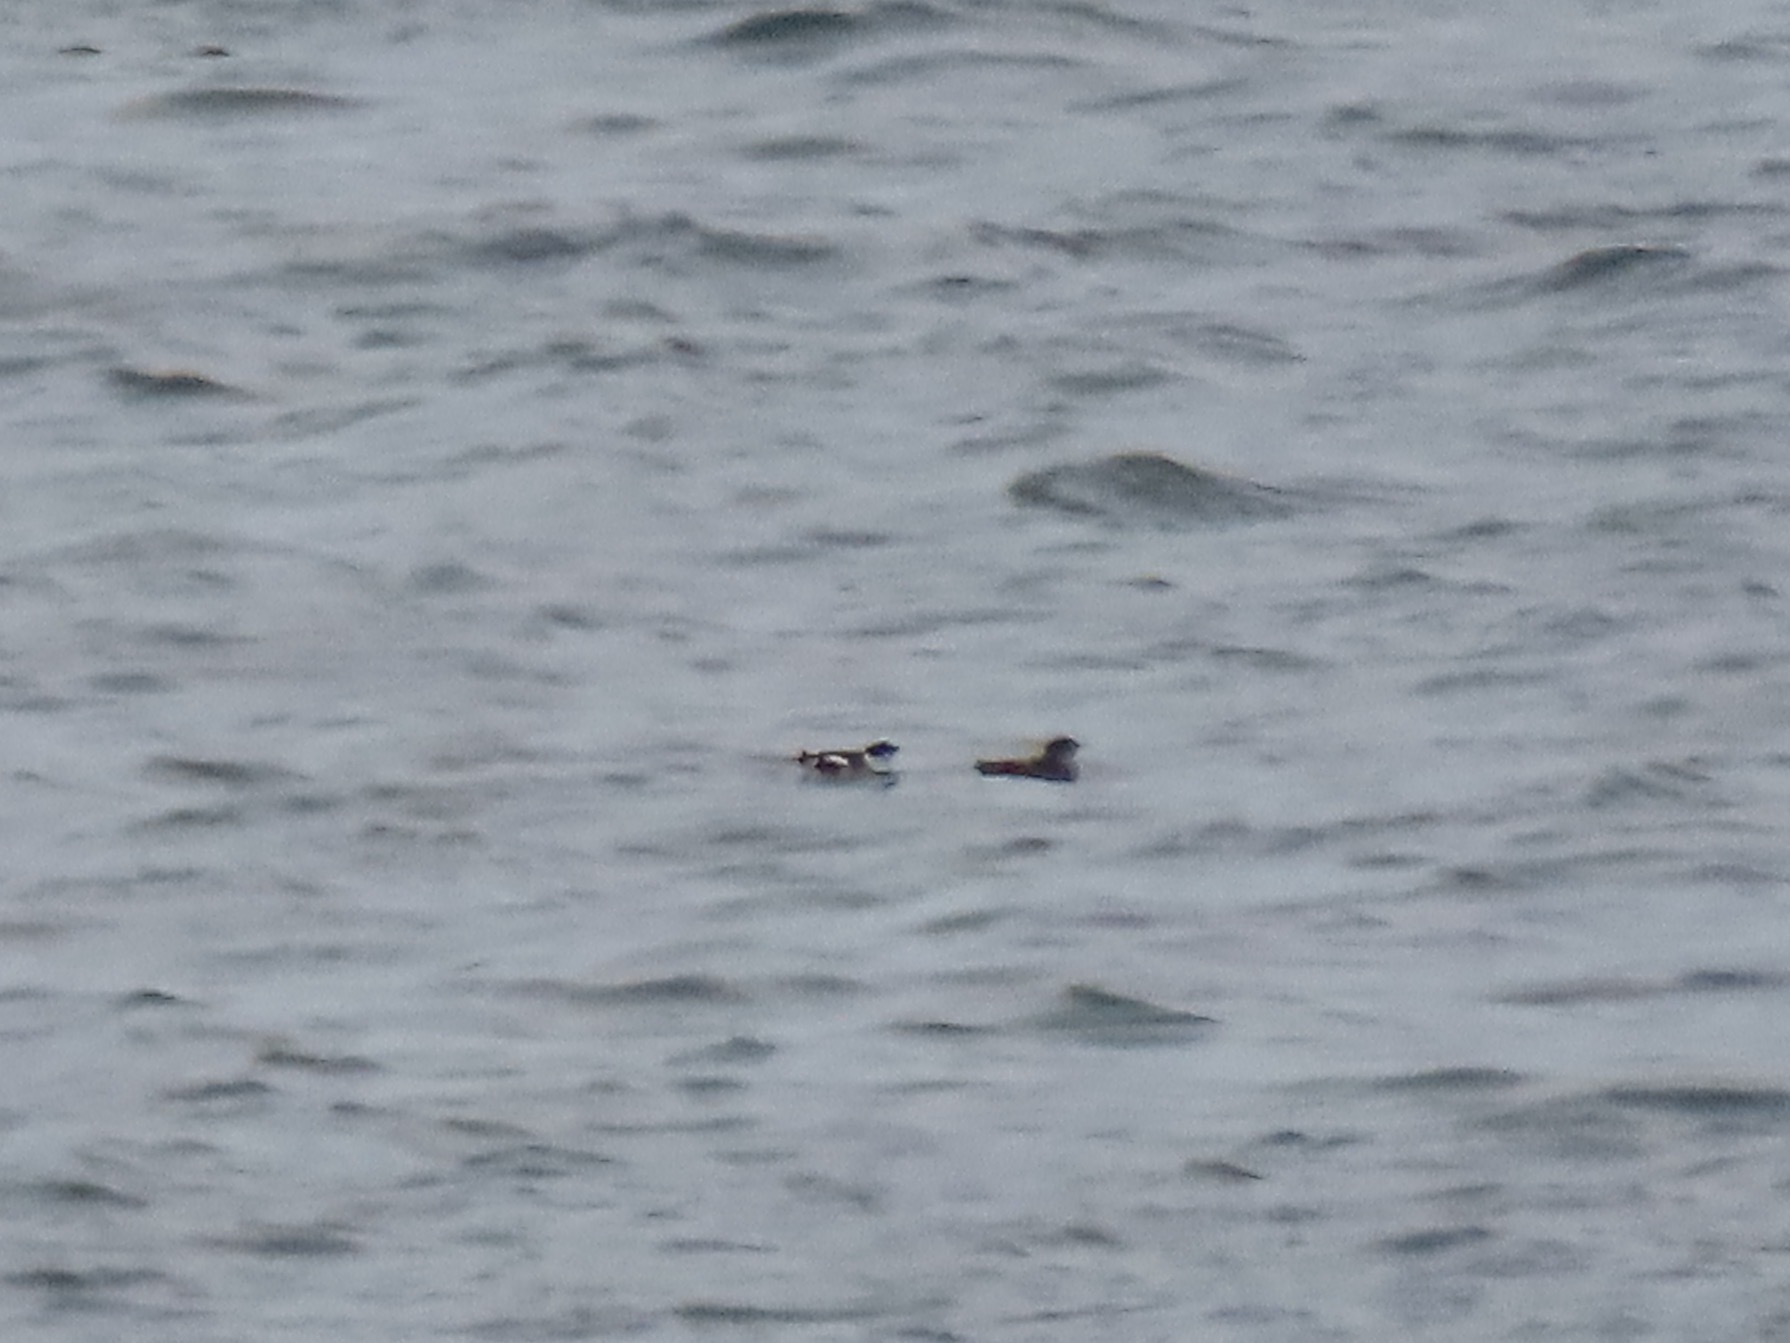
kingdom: Animalia
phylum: Chordata
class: Aves
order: Charadriiformes
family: Alcidae
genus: Brachyramphus
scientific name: Brachyramphus marmoratus
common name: Marbled murrelet
